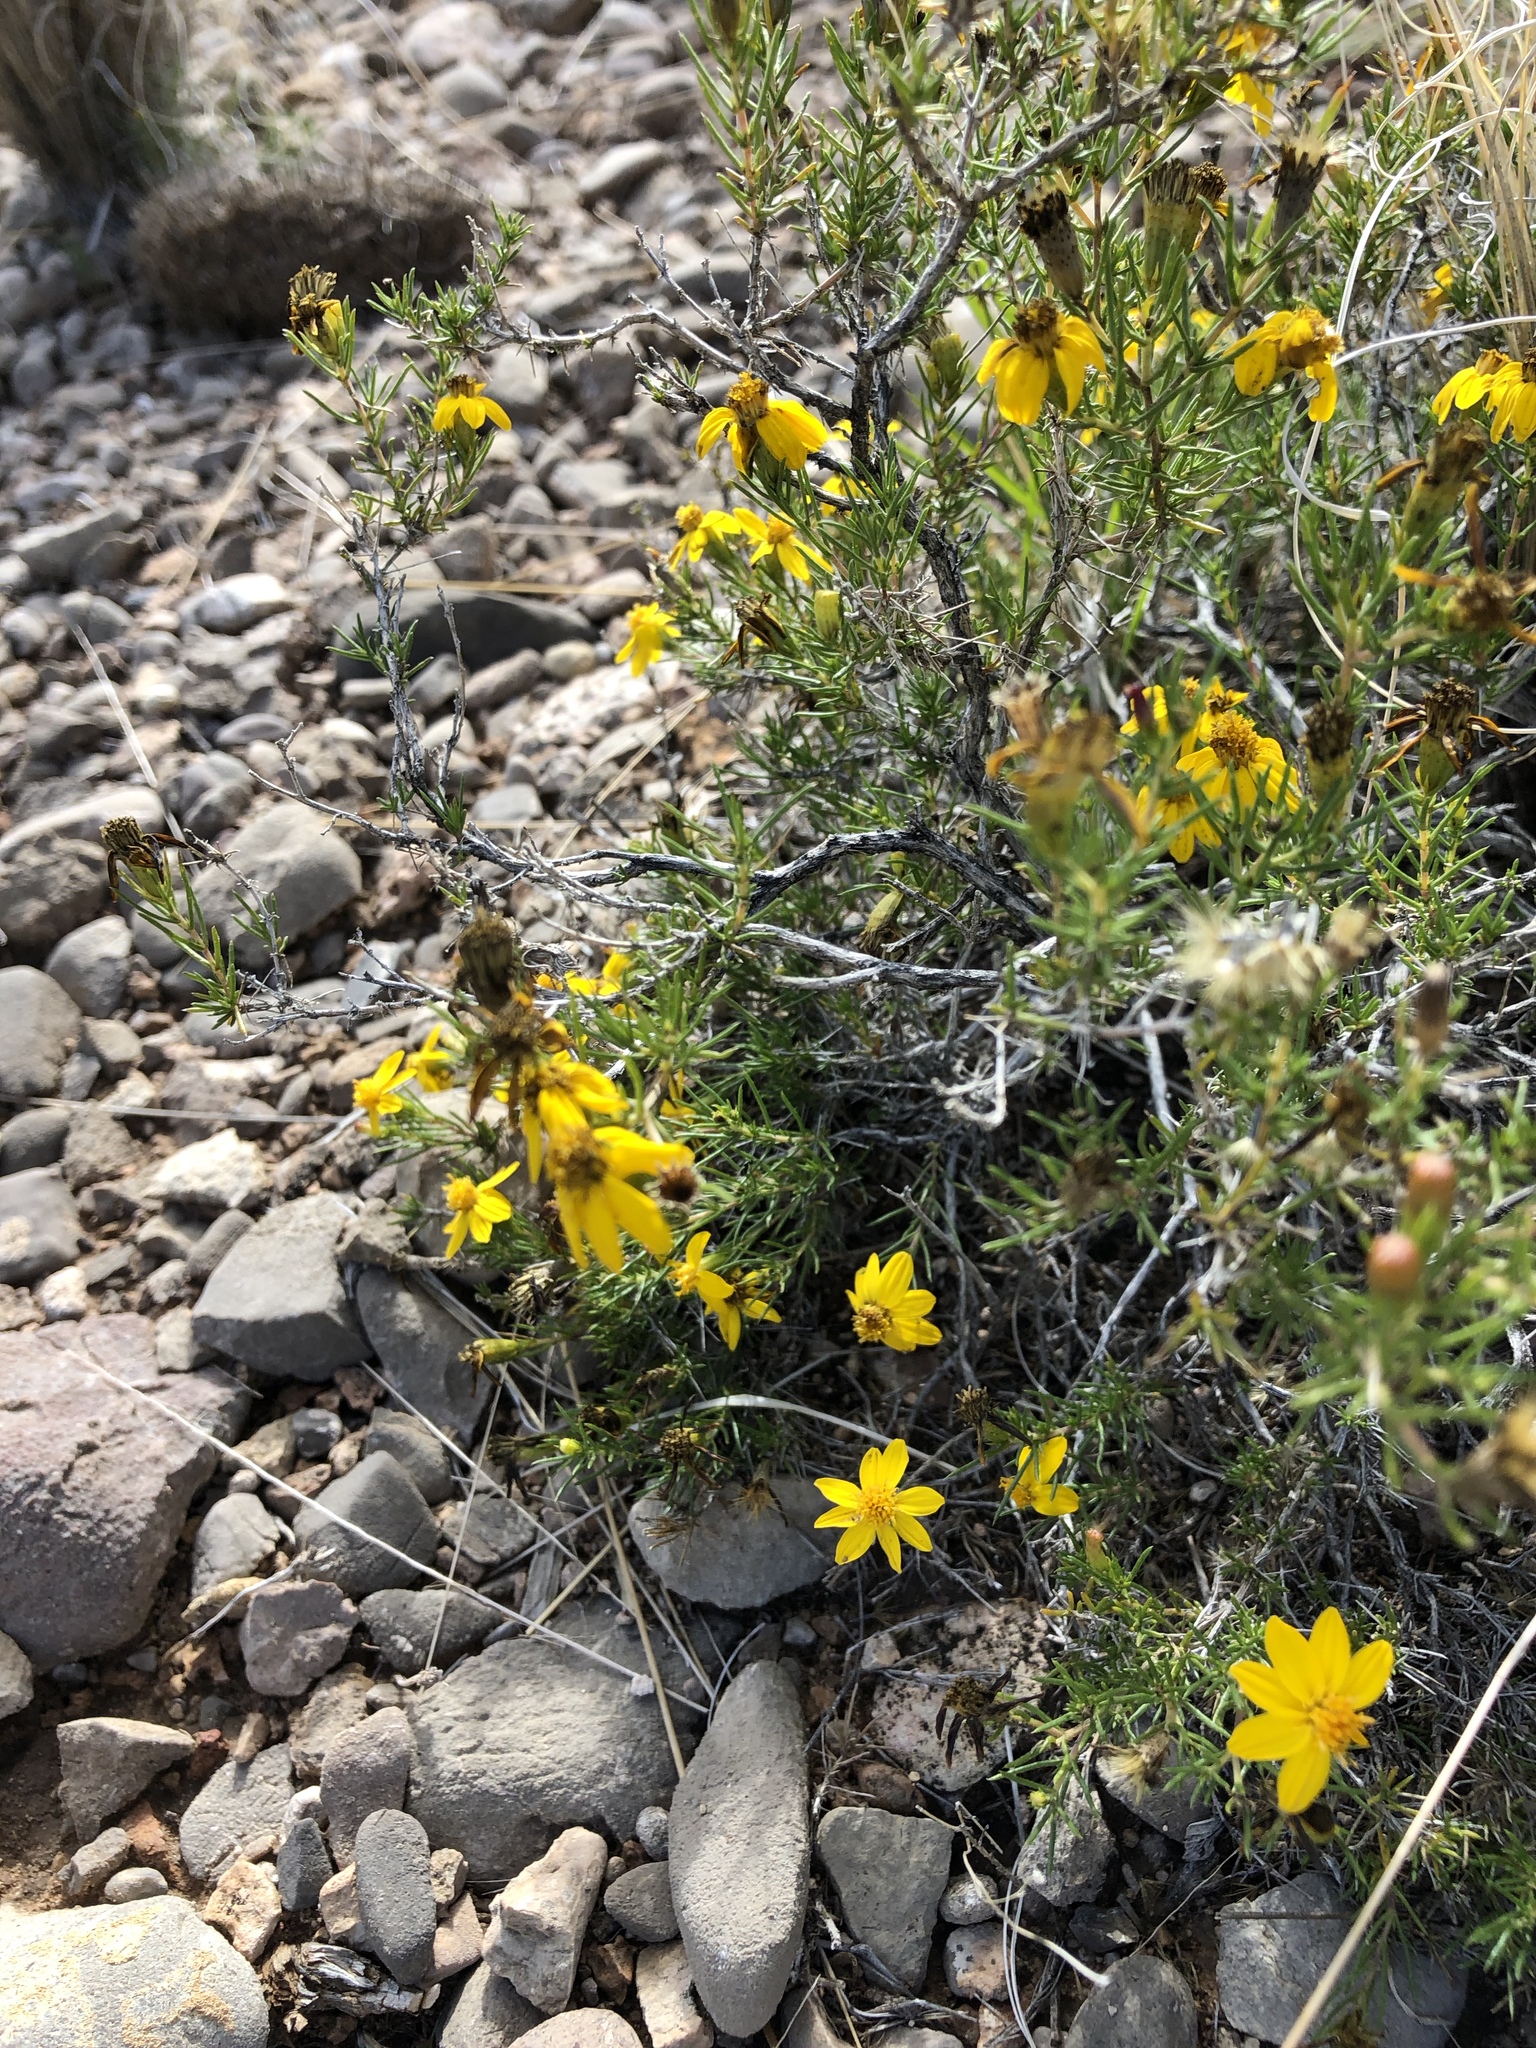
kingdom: Plantae
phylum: Tracheophyta
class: Magnoliopsida
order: Asterales
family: Asteraceae
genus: Thymophylla
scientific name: Thymophylla acerosa
